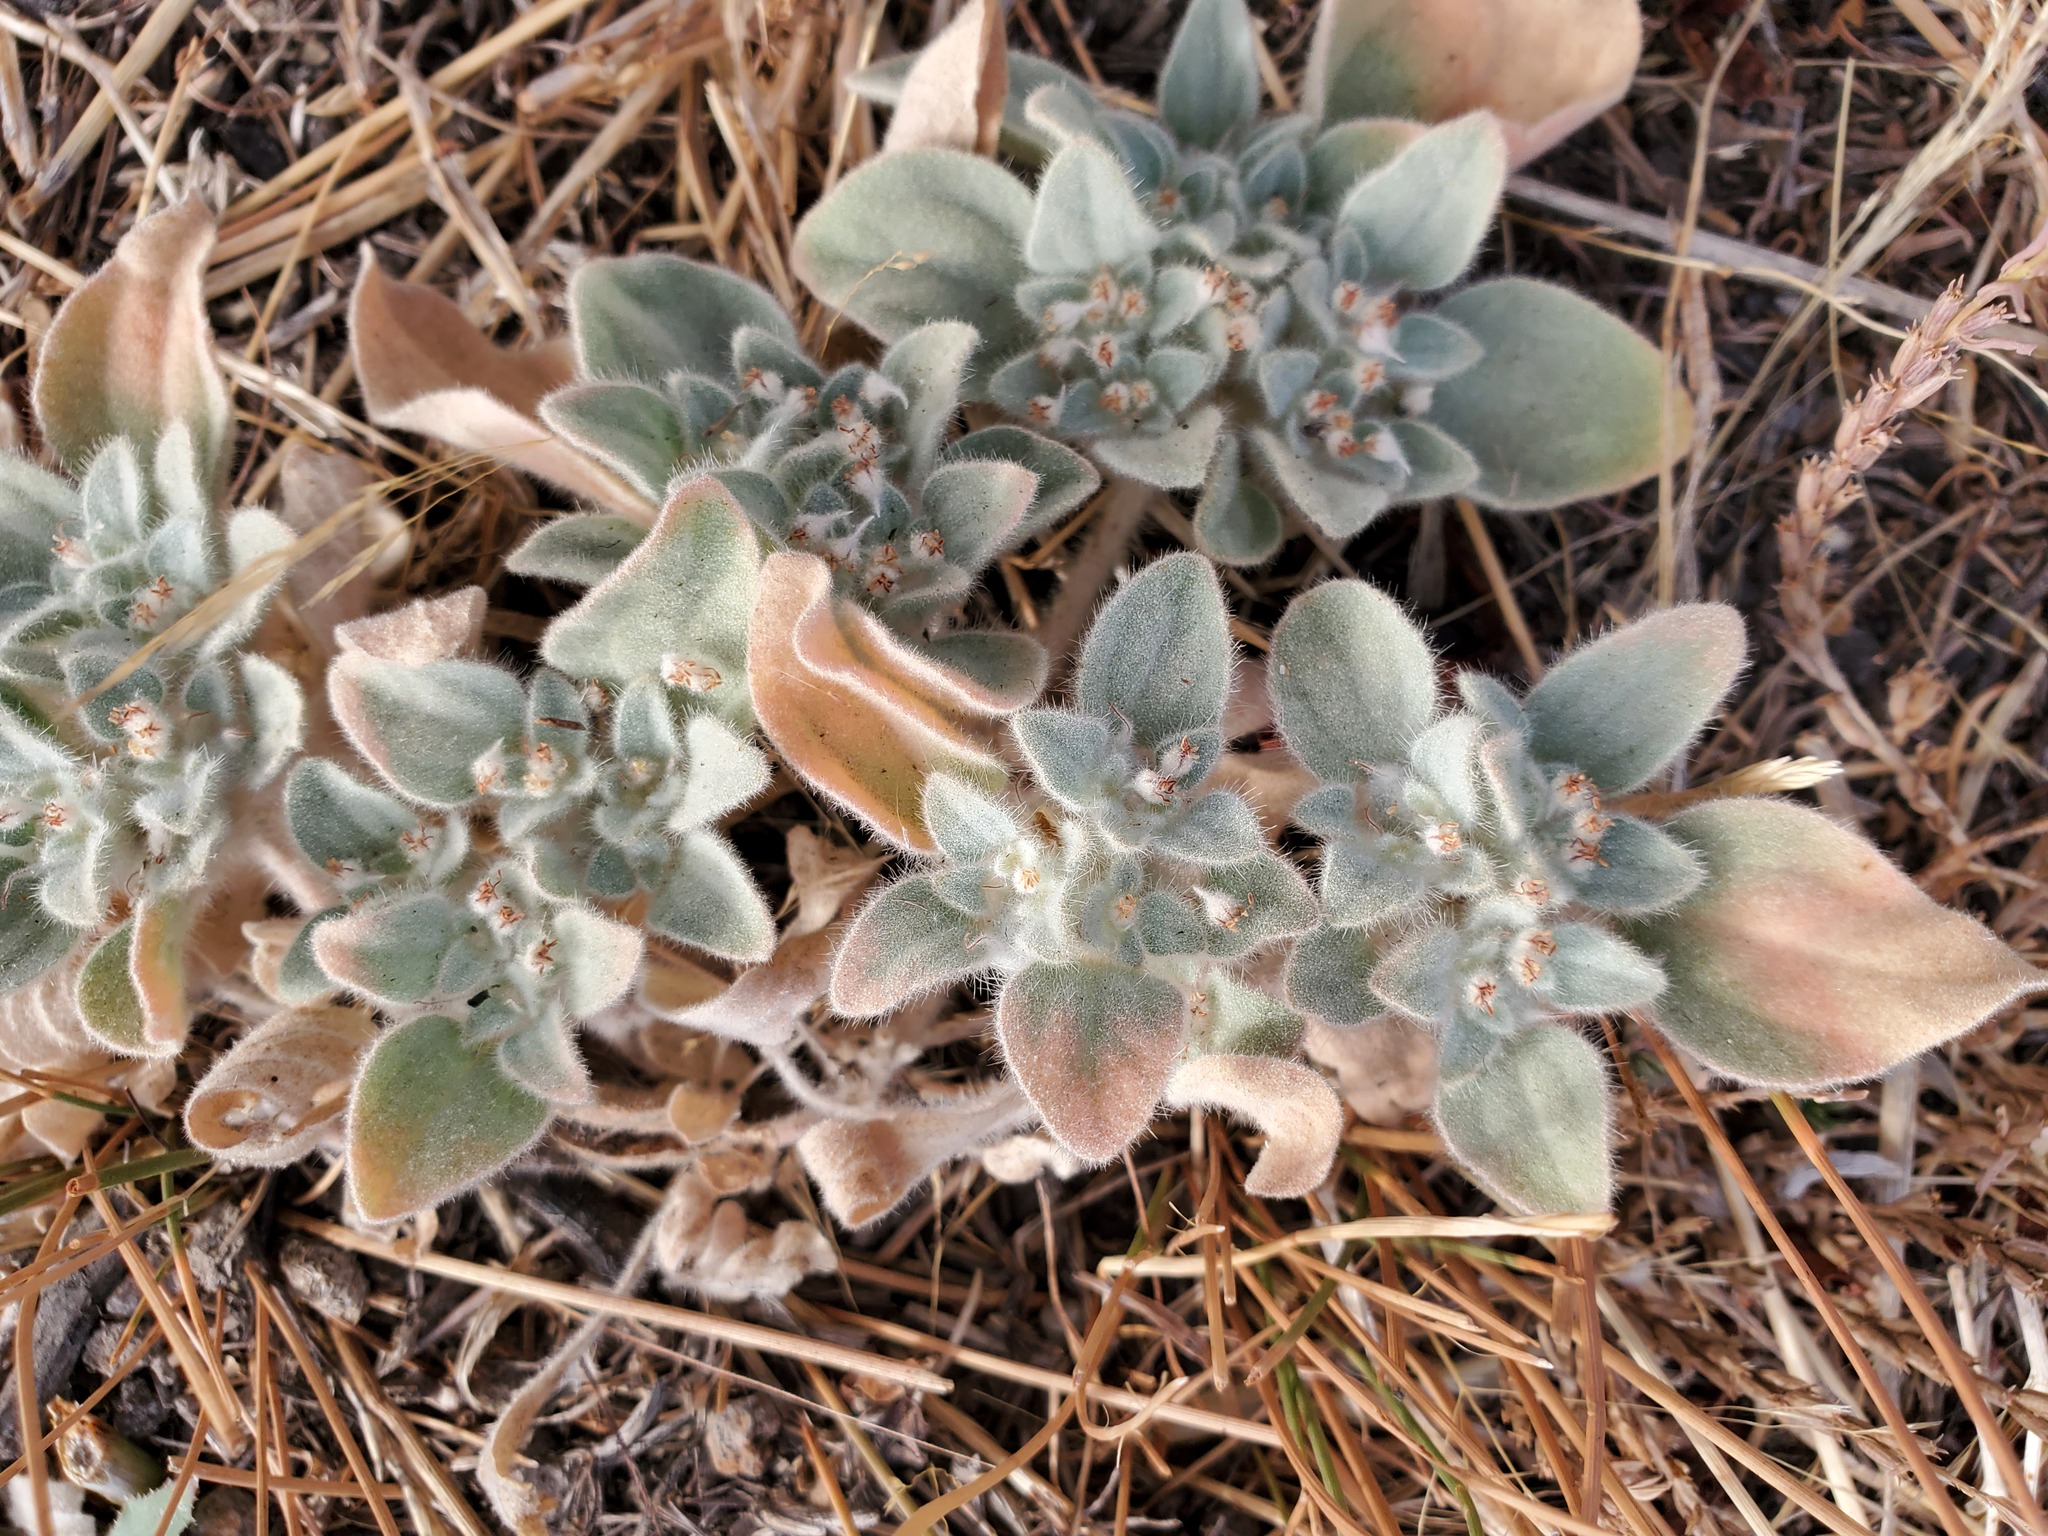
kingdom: Plantae
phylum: Tracheophyta
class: Magnoliopsida
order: Malpighiales
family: Euphorbiaceae
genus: Croton
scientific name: Croton setiger
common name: Dove weed
